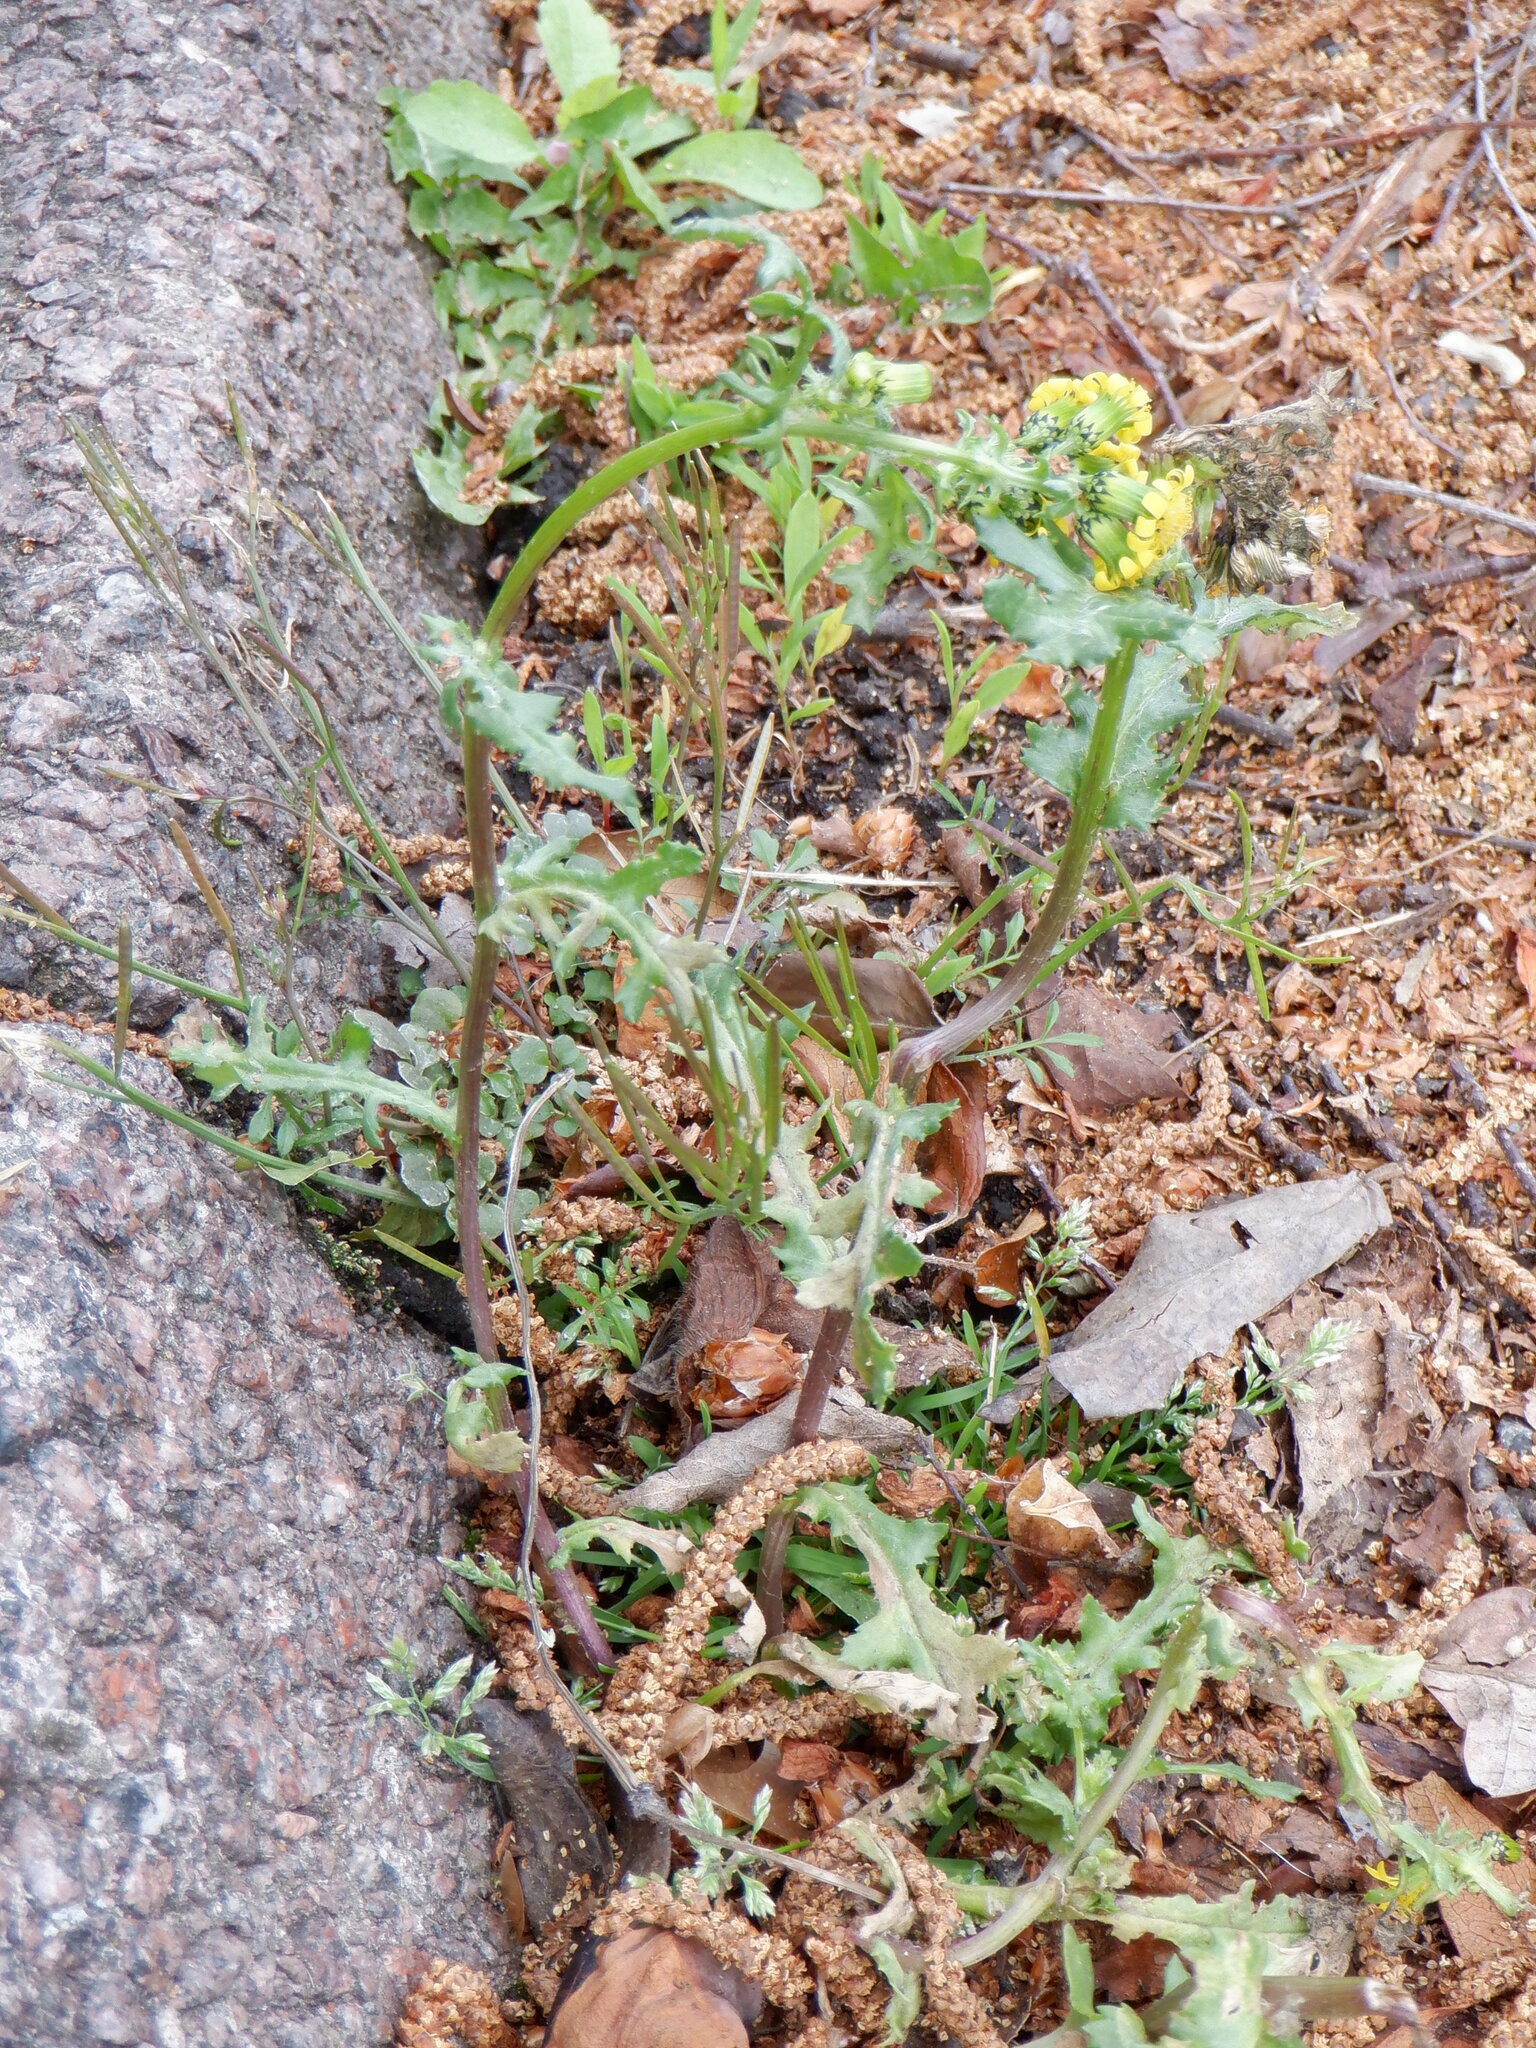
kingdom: Plantae
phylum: Tracheophyta
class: Magnoliopsida
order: Asterales
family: Asteraceae
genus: Senecio
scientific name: Senecio vulgaris
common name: Old-man-in-the-spring
